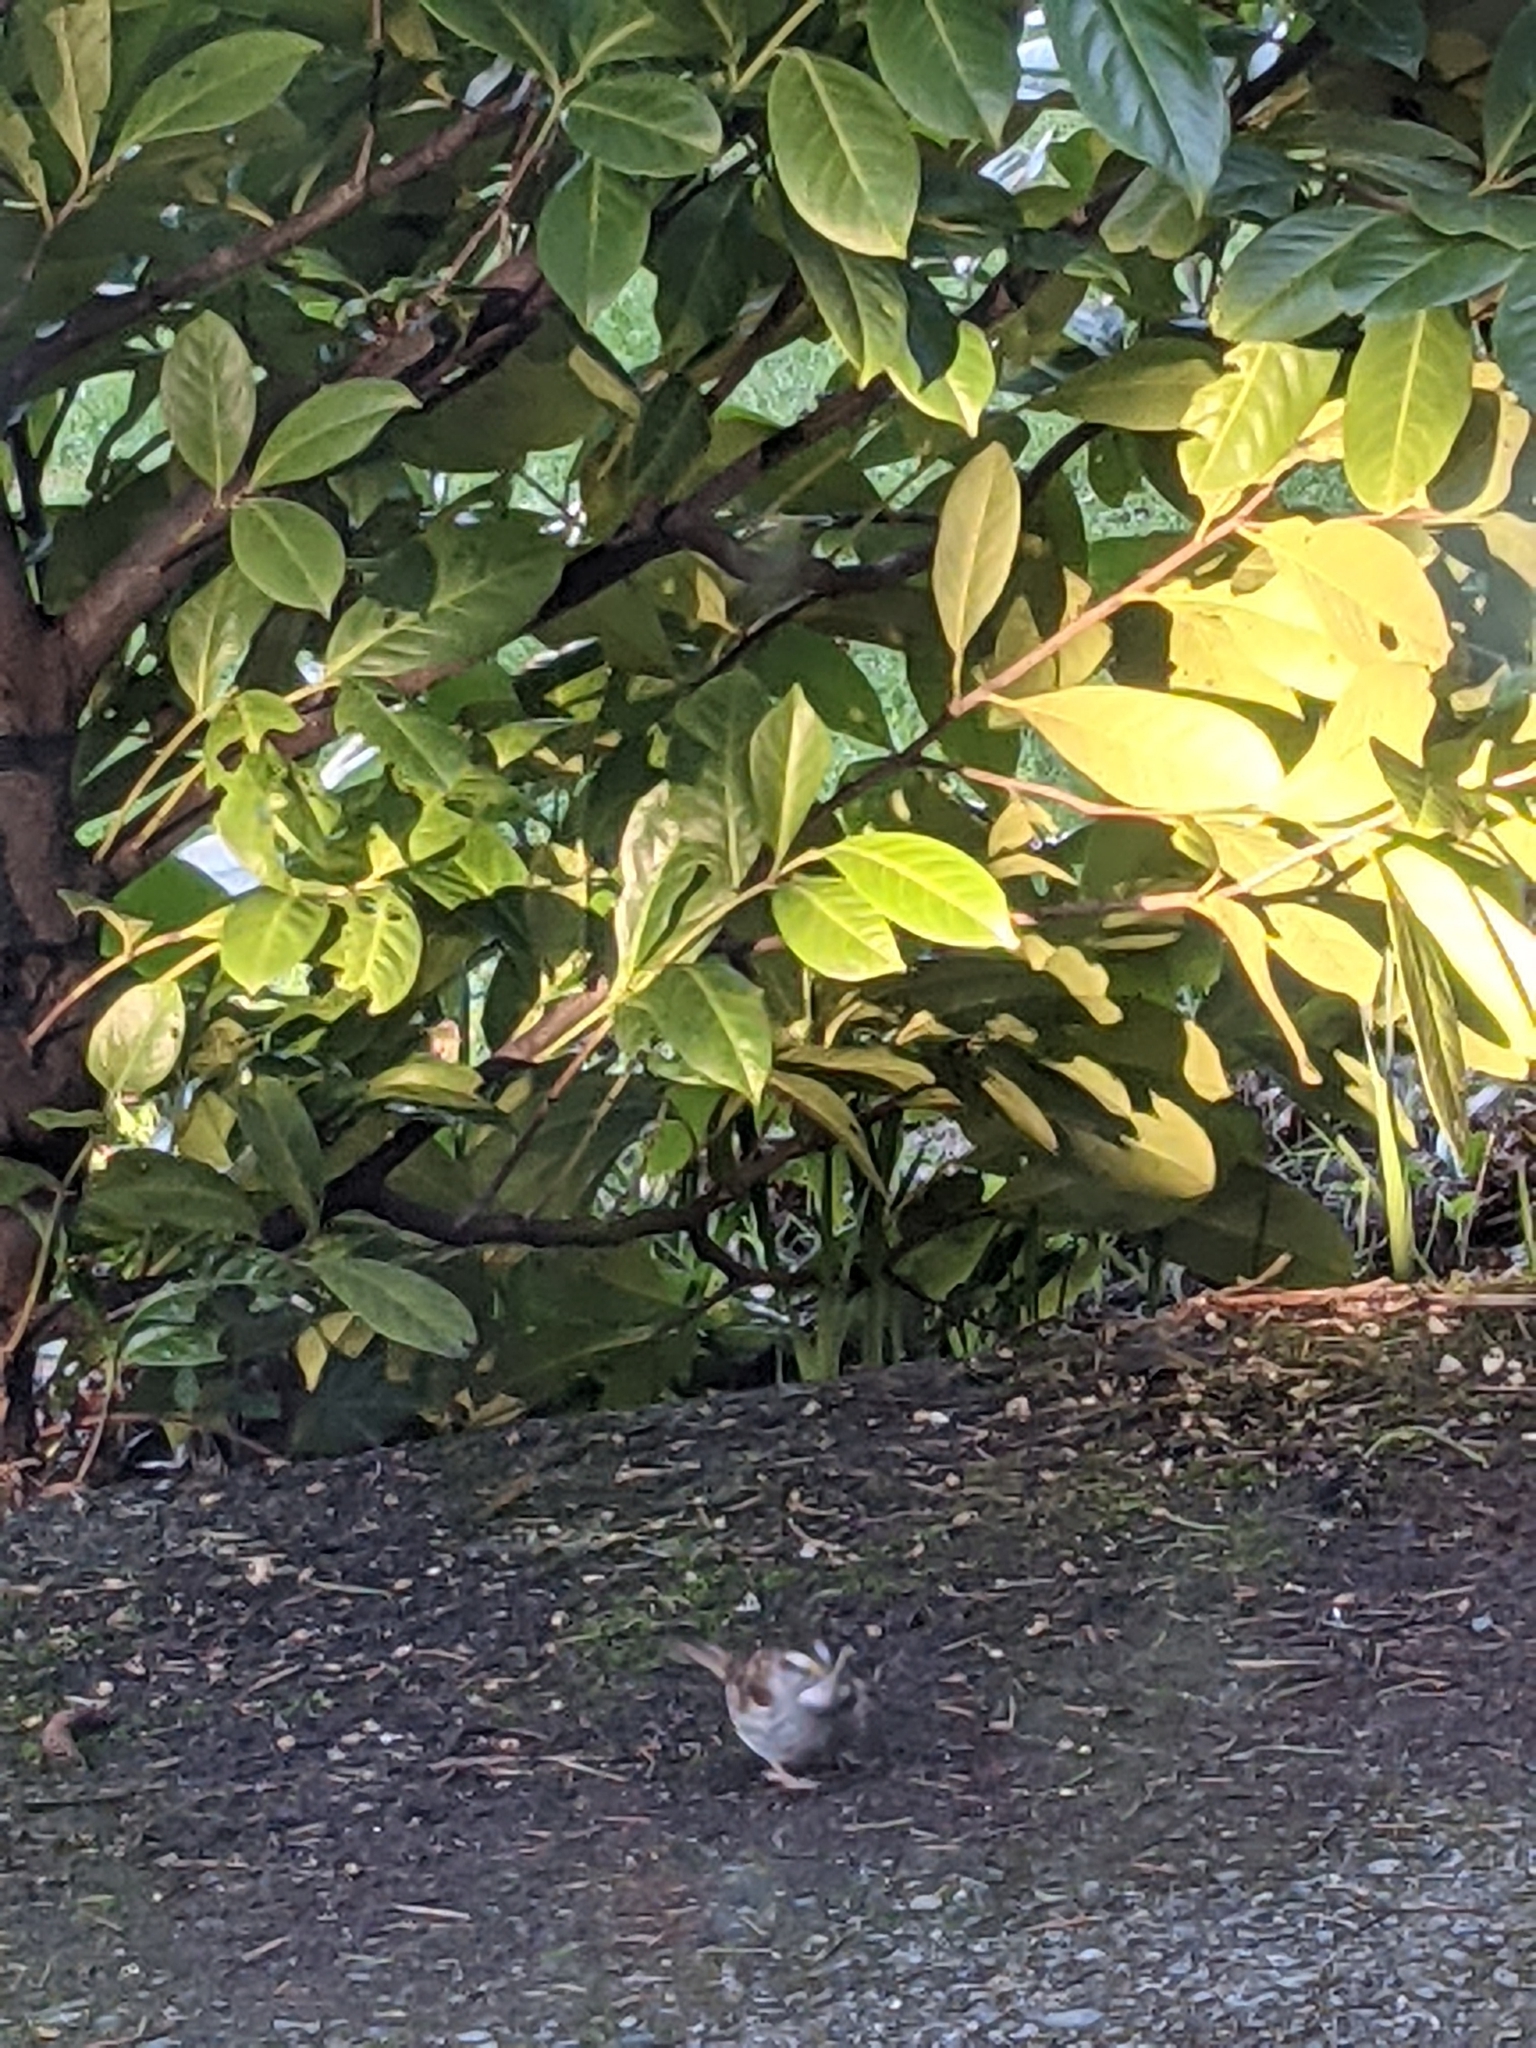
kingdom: Animalia
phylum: Chordata
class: Aves
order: Passeriformes
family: Passerellidae
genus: Zonotrichia
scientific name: Zonotrichia albicollis
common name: White-throated sparrow
